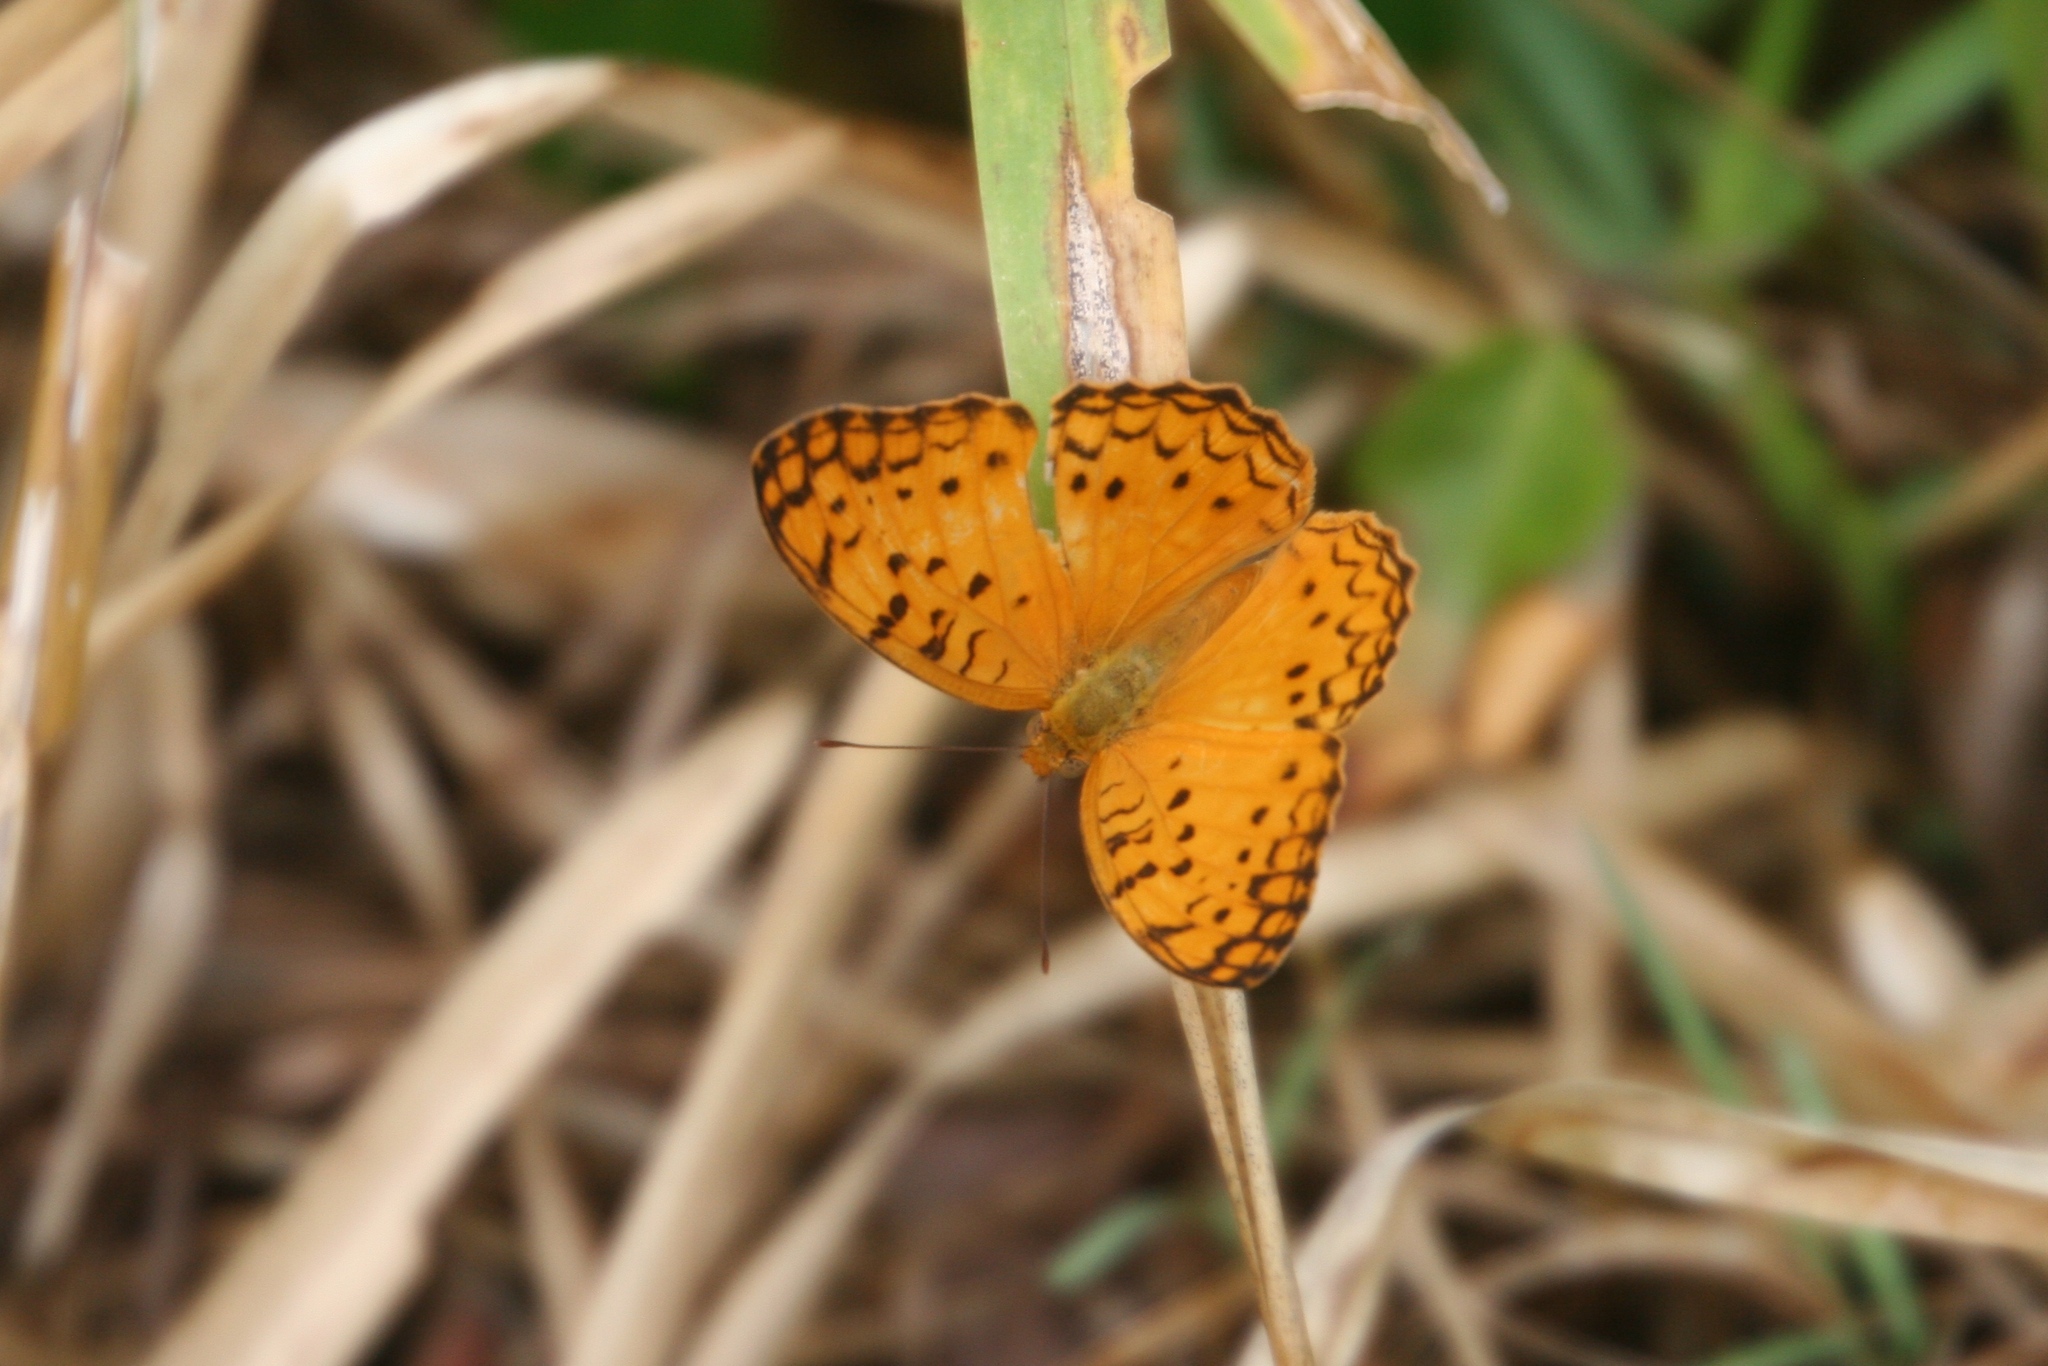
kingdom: Animalia
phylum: Arthropoda
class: Insecta
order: Lepidoptera
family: Nymphalidae
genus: Phalanta
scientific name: Phalanta phalantha
